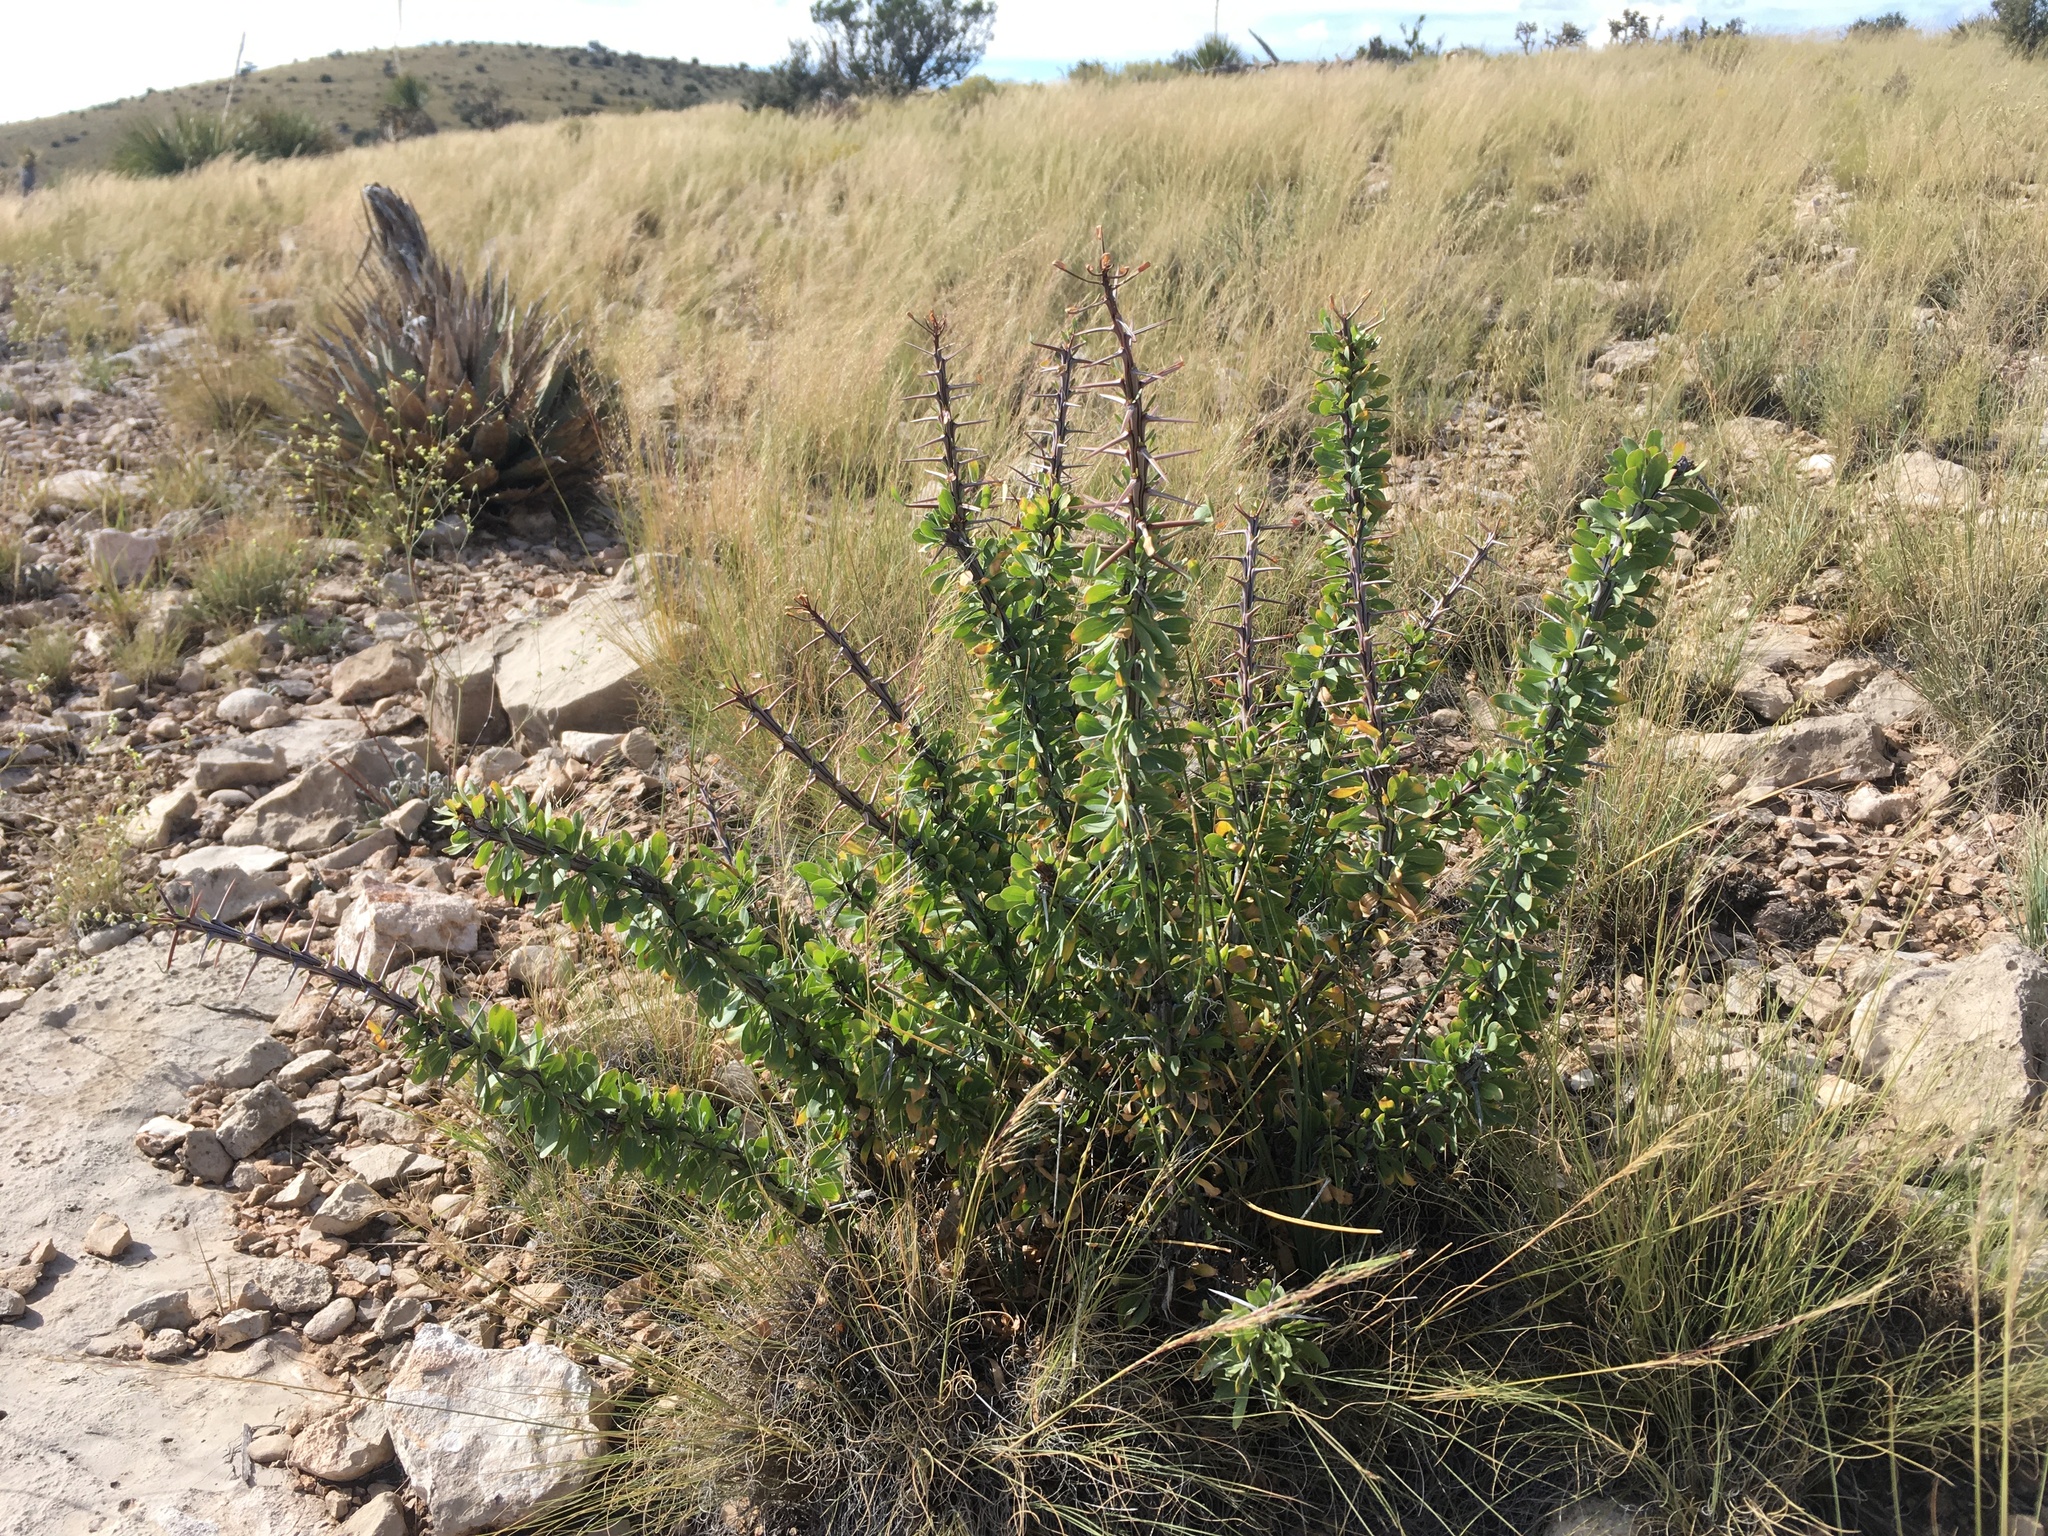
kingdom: Plantae
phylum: Tracheophyta
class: Magnoliopsida
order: Ericales
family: Fouquieriaceae
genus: Fouquieria
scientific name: Fouquieria splendens
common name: Vine-cactus
